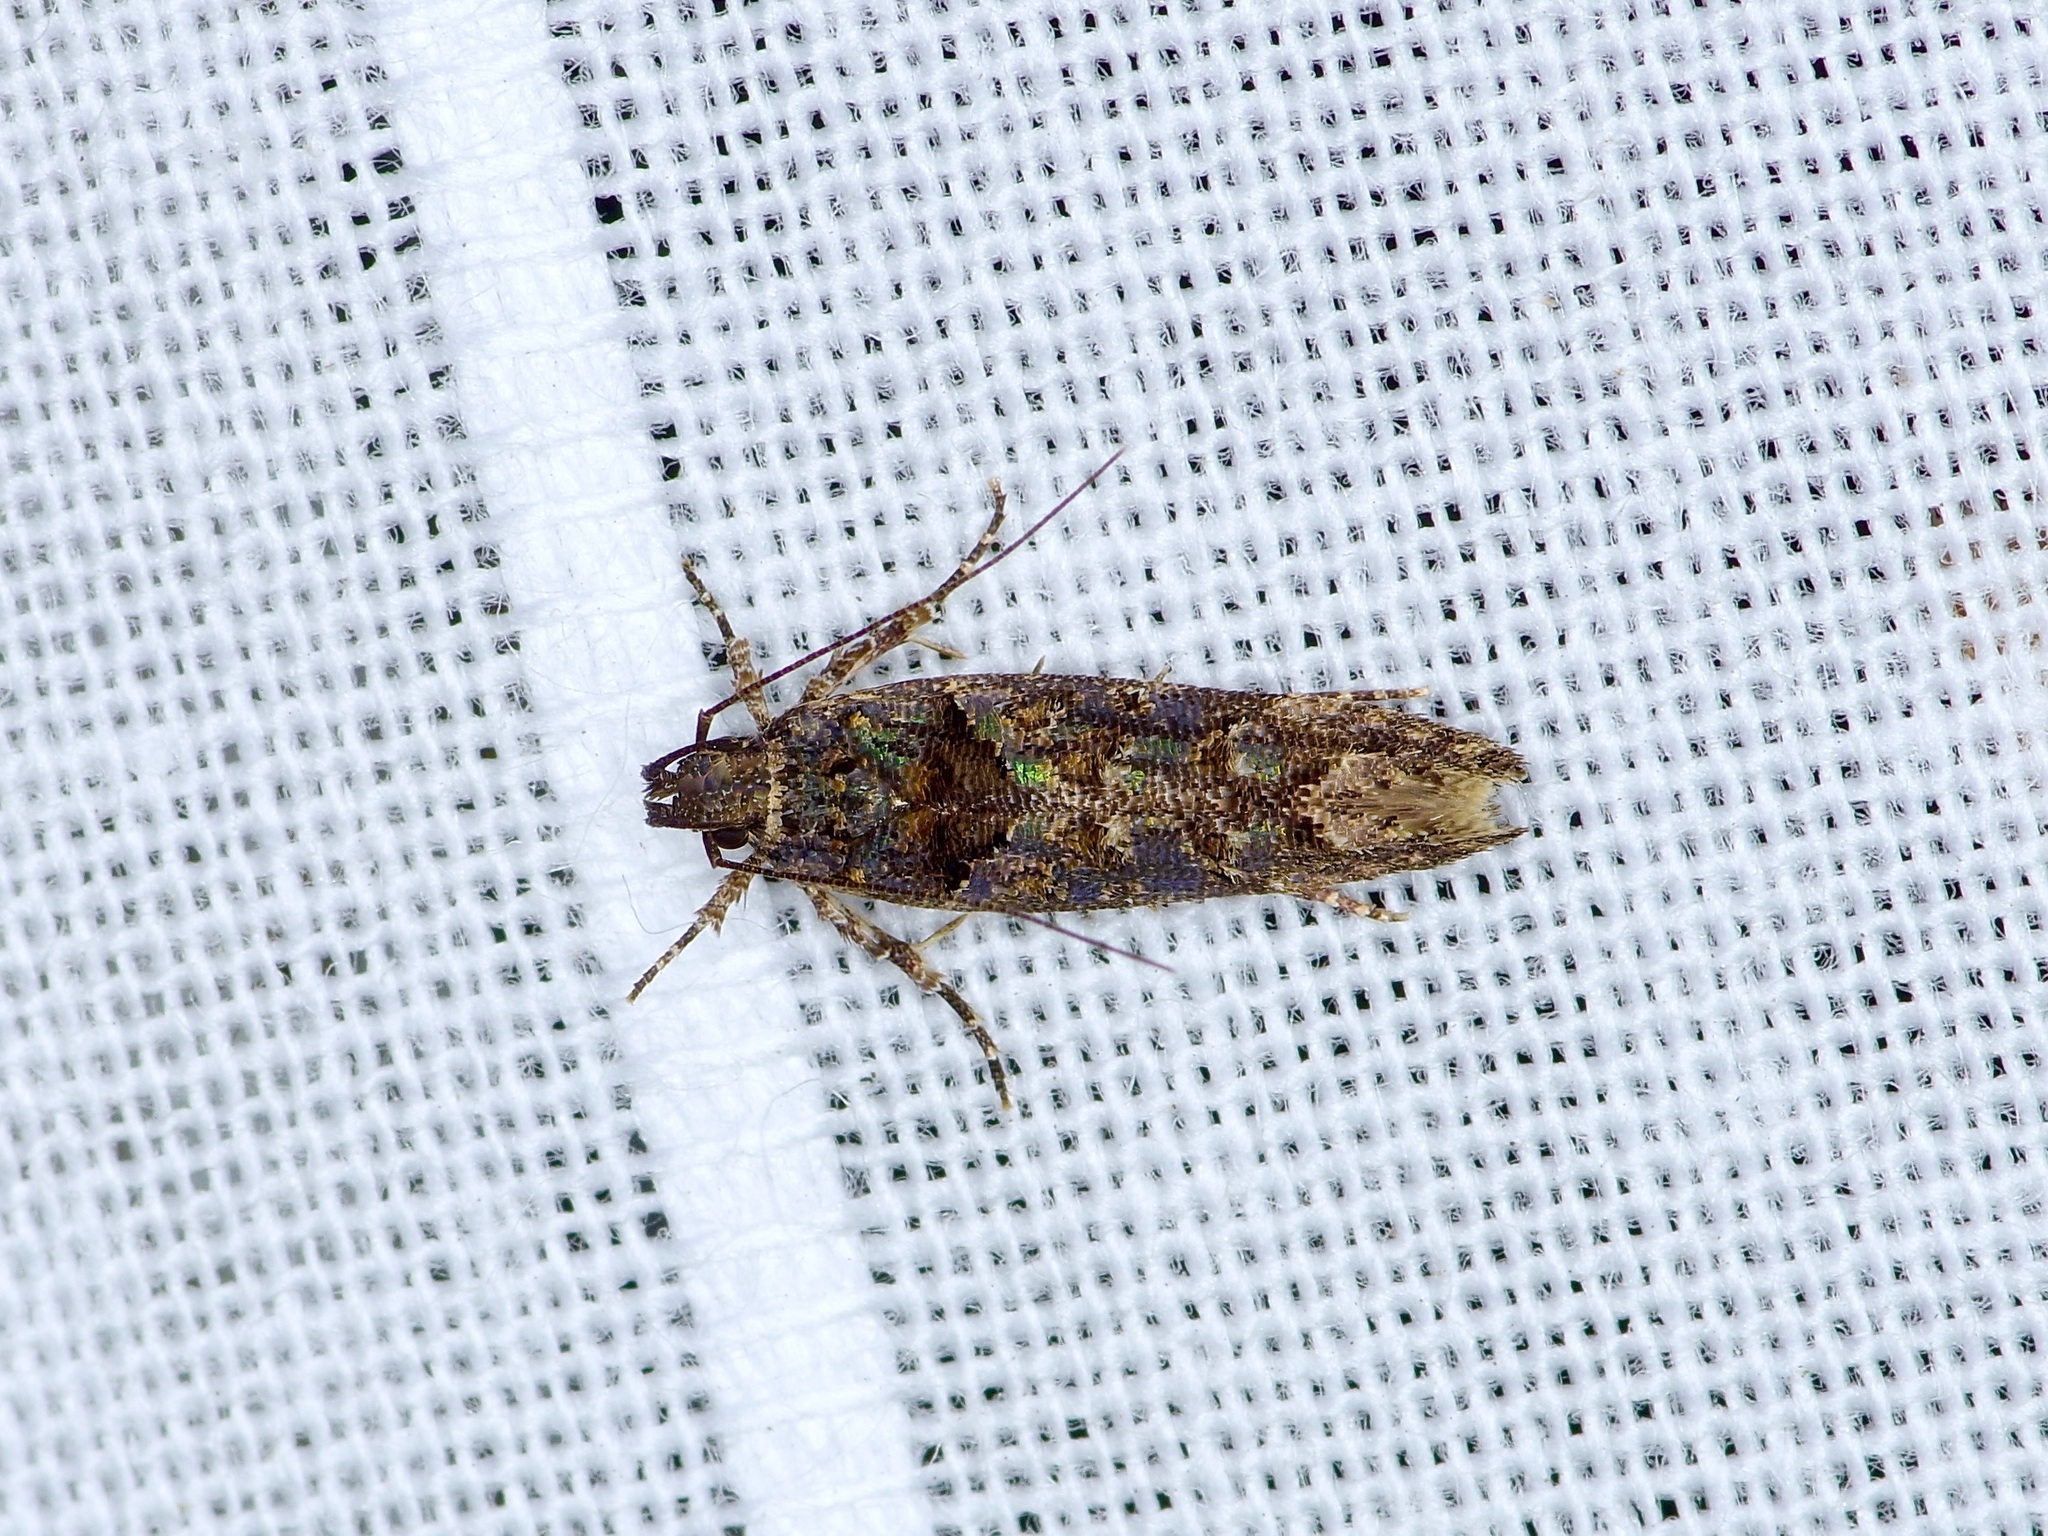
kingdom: Animalia
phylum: Arthropoda
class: Insecta
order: Lepidoptera
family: Gelechiidae
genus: Telphusa
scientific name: Telphusa perspicua
